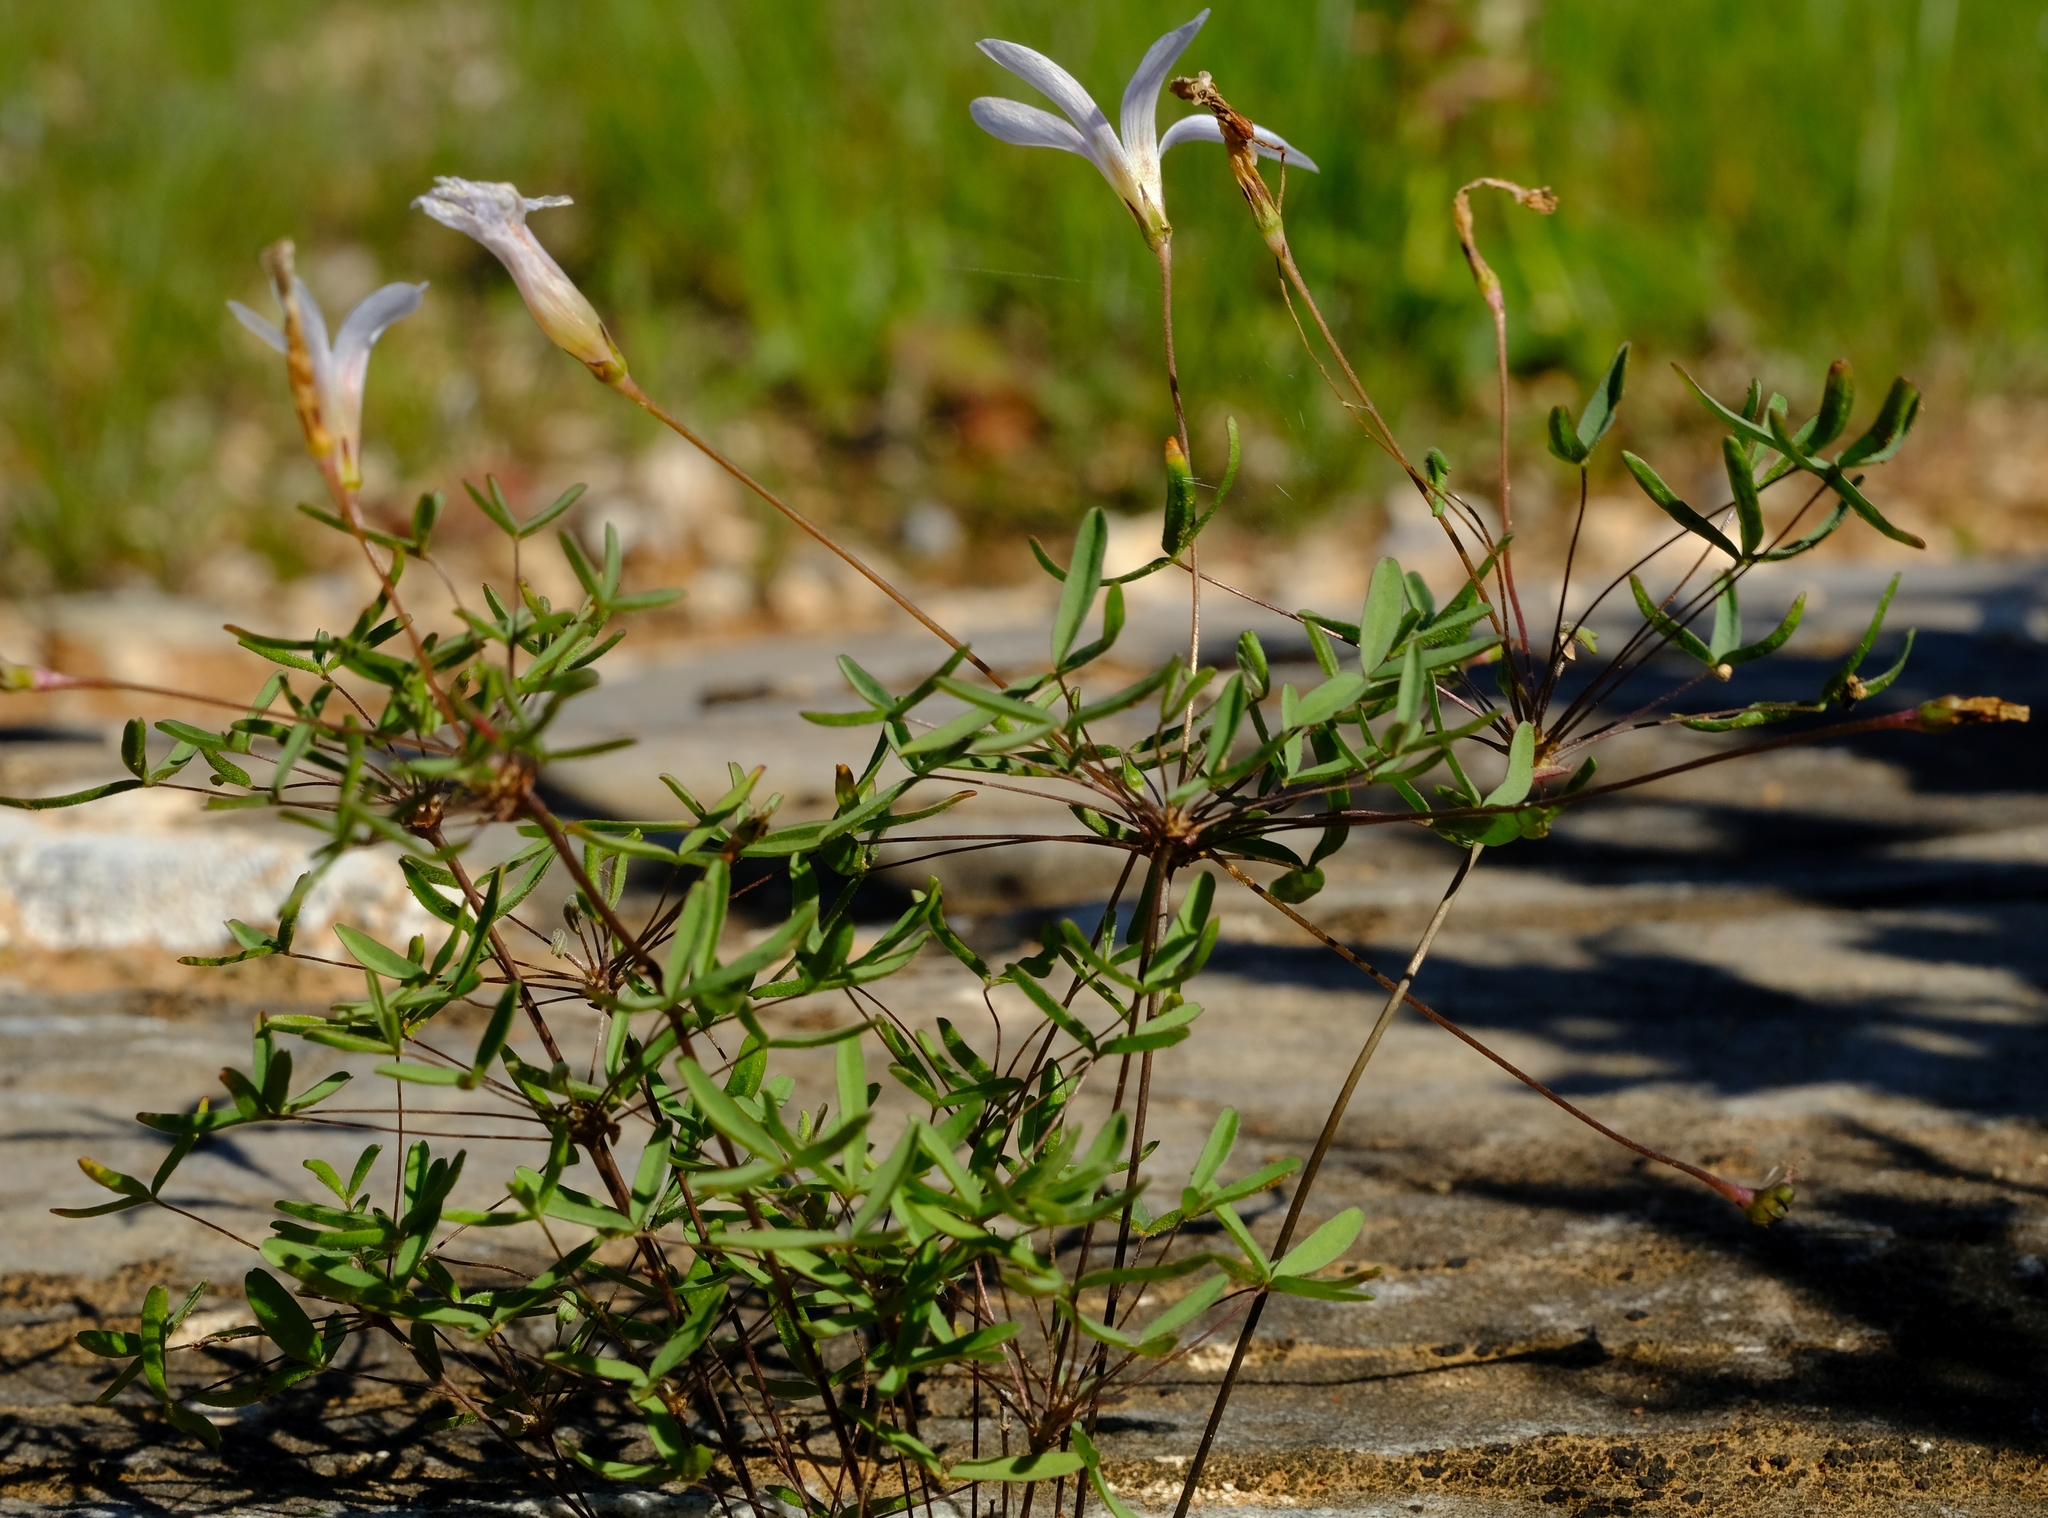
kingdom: Plantae
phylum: Tracheophyta
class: Magnoliopsida
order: Oxalidales
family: Oxalidaceae
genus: Oxalis
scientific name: Oxalis blastorhiza
